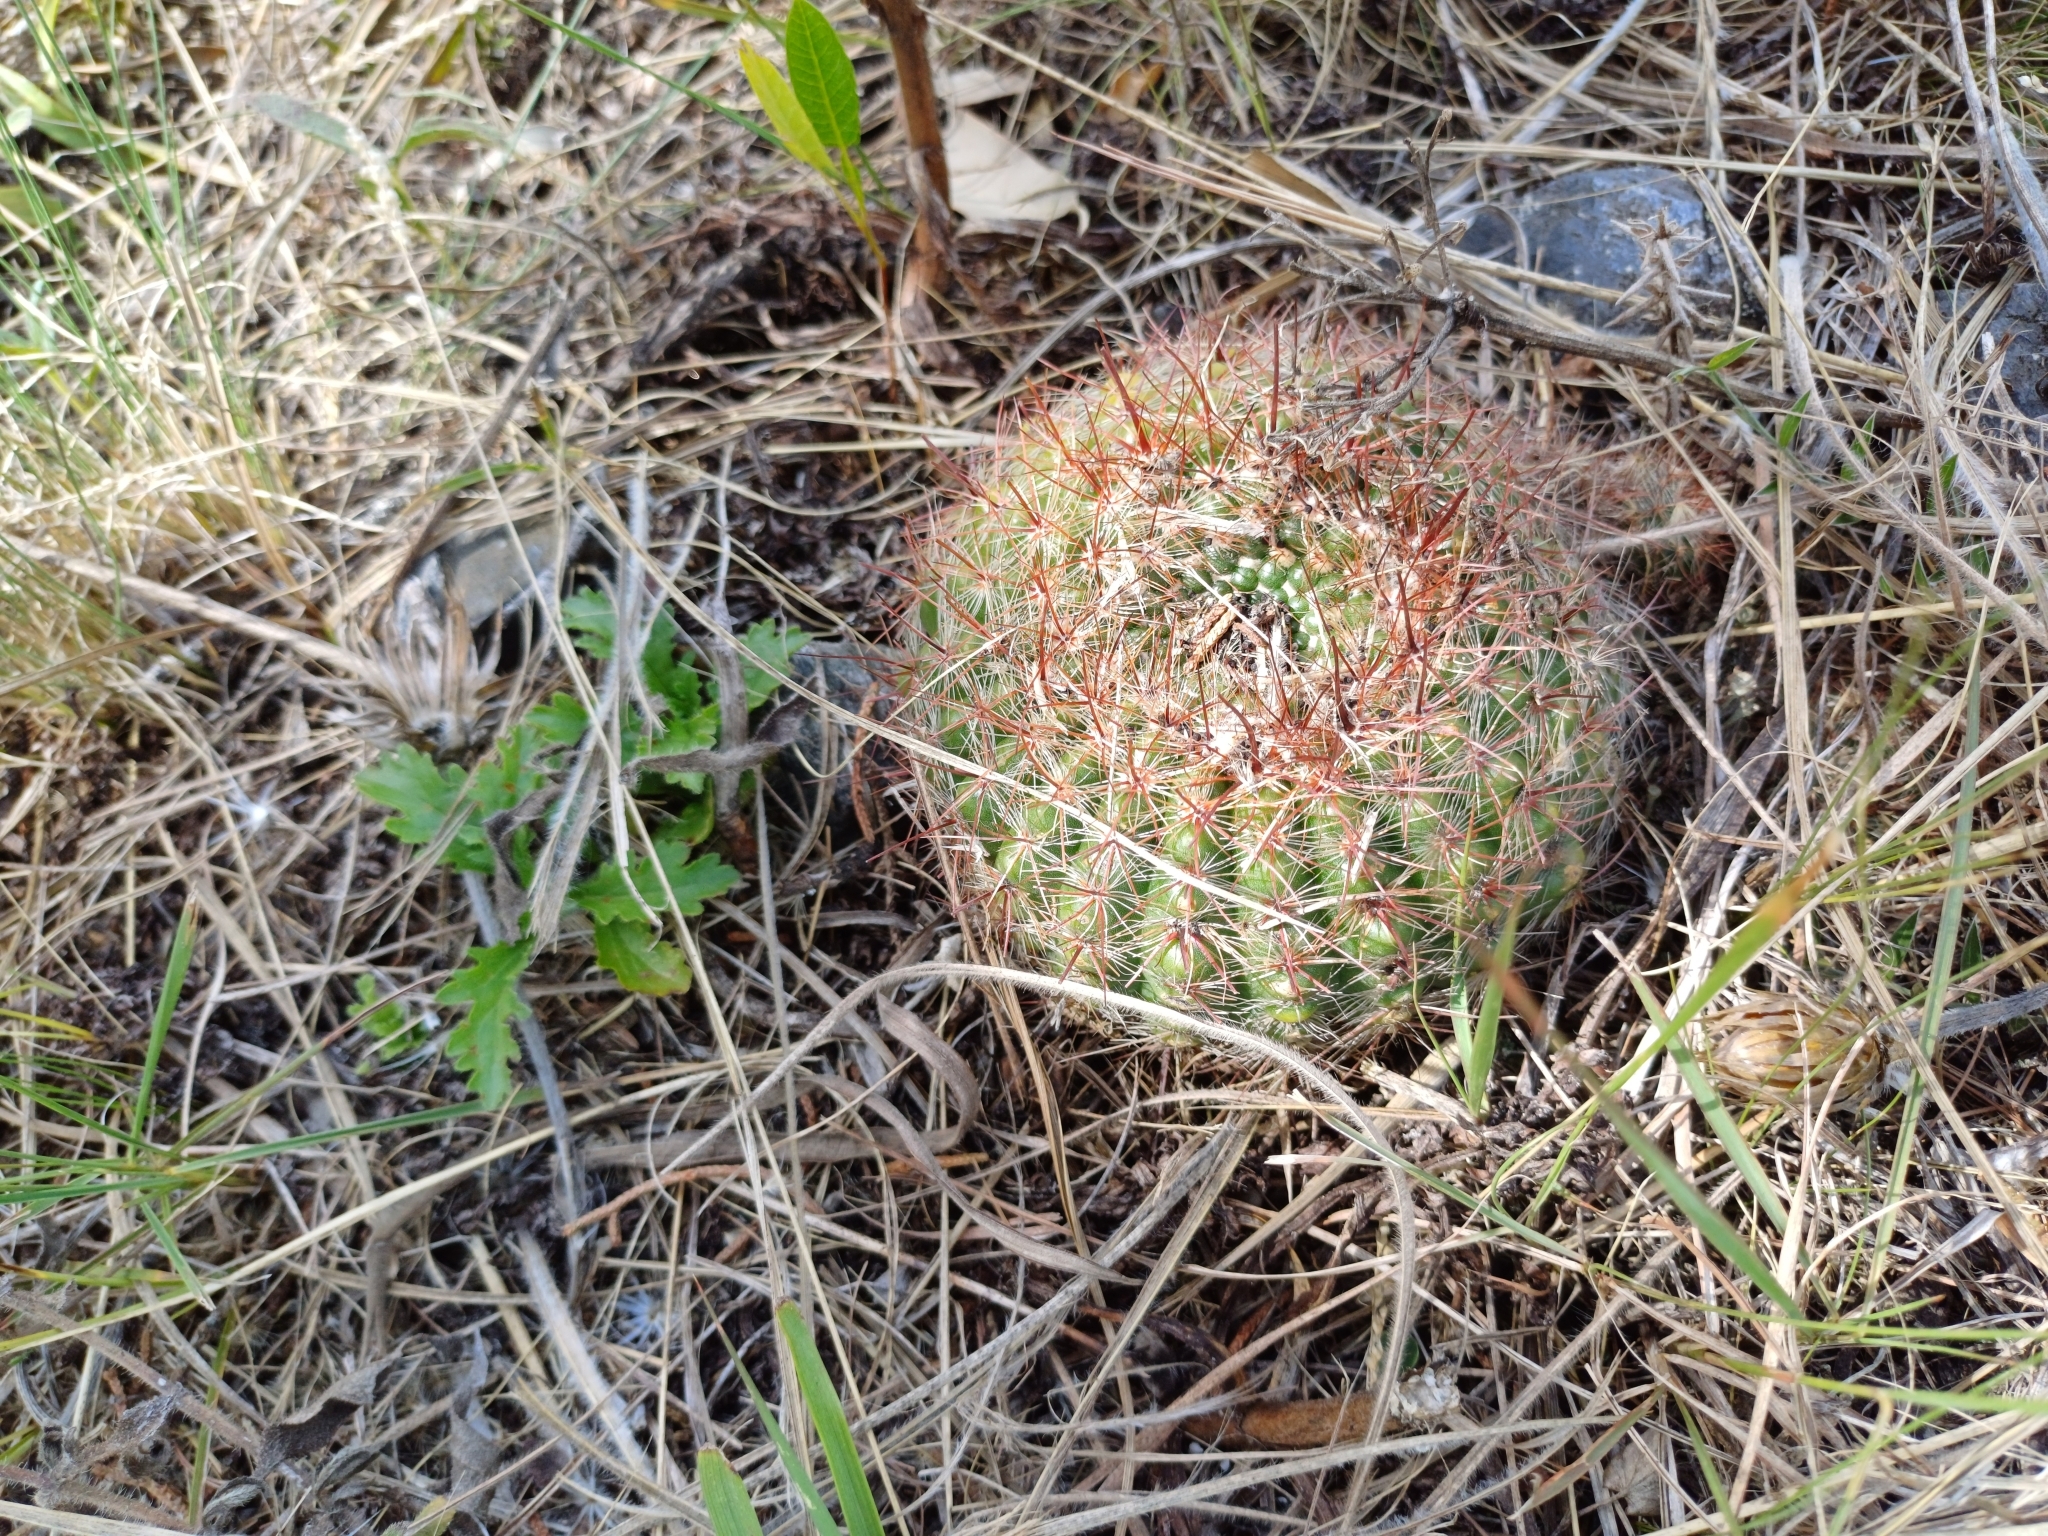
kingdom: Plantae
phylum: Tracheophyta
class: Magnoliopsida
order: Caryophyllales
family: Cactaceae
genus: Parodia
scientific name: Parodia concinna
